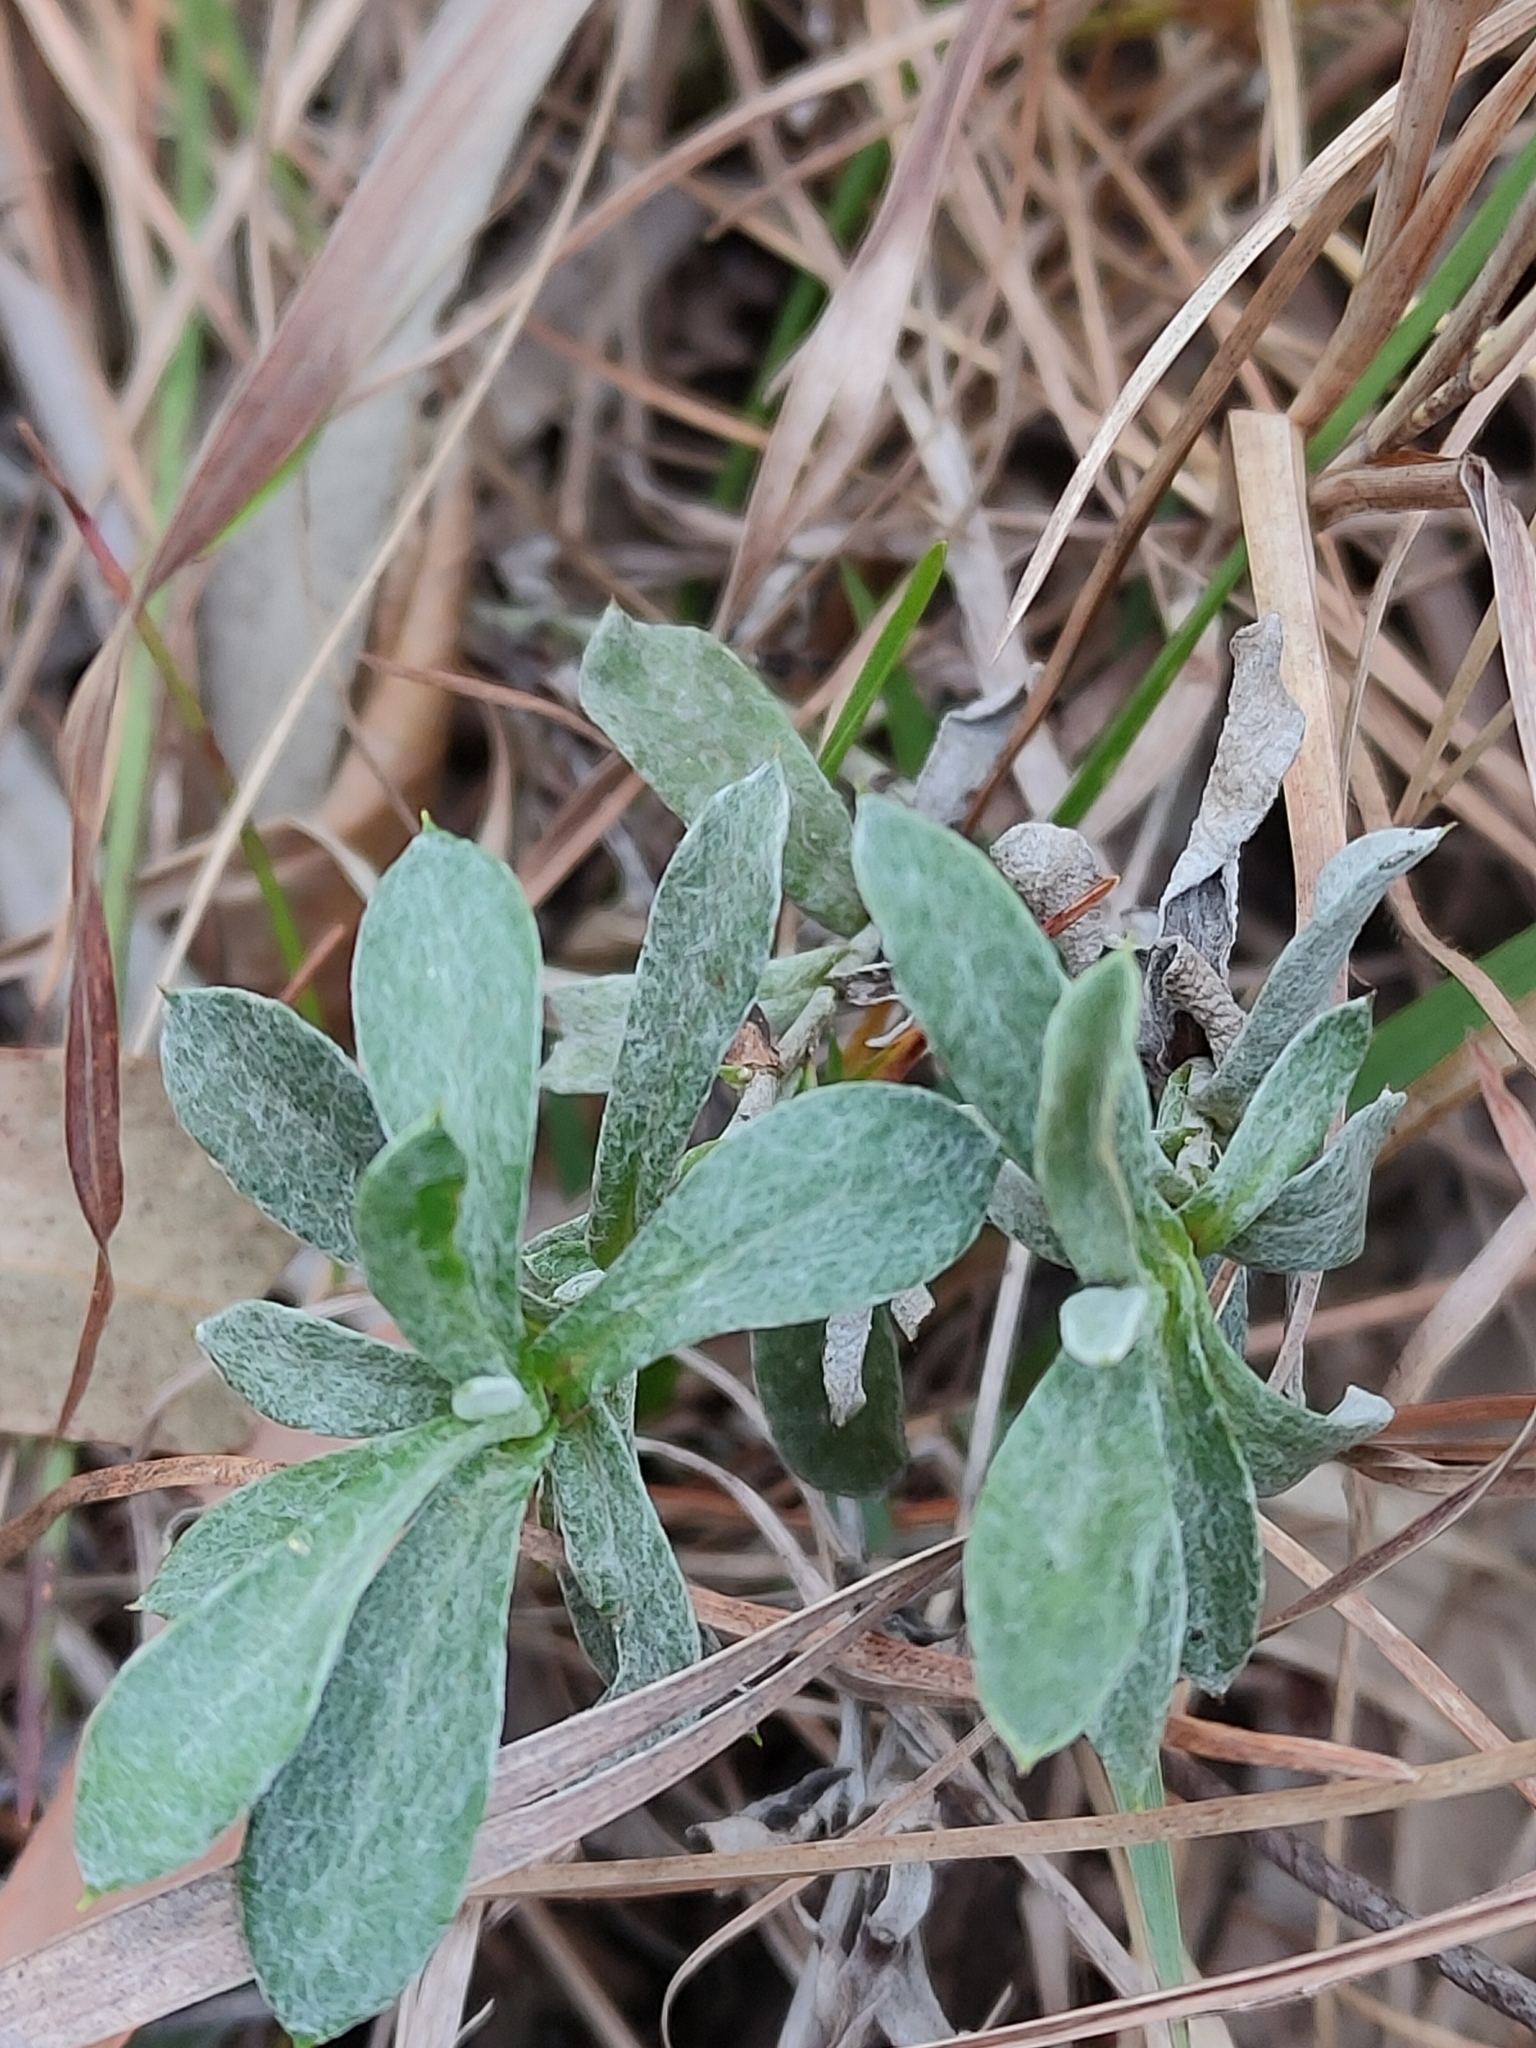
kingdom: Plantae
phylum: Tracheophyta
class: Magnoliopsida
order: Asterales
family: Asteraceae
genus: Chrysocephalum
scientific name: Chrysocephalum apiculatum
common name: Common everlasting
